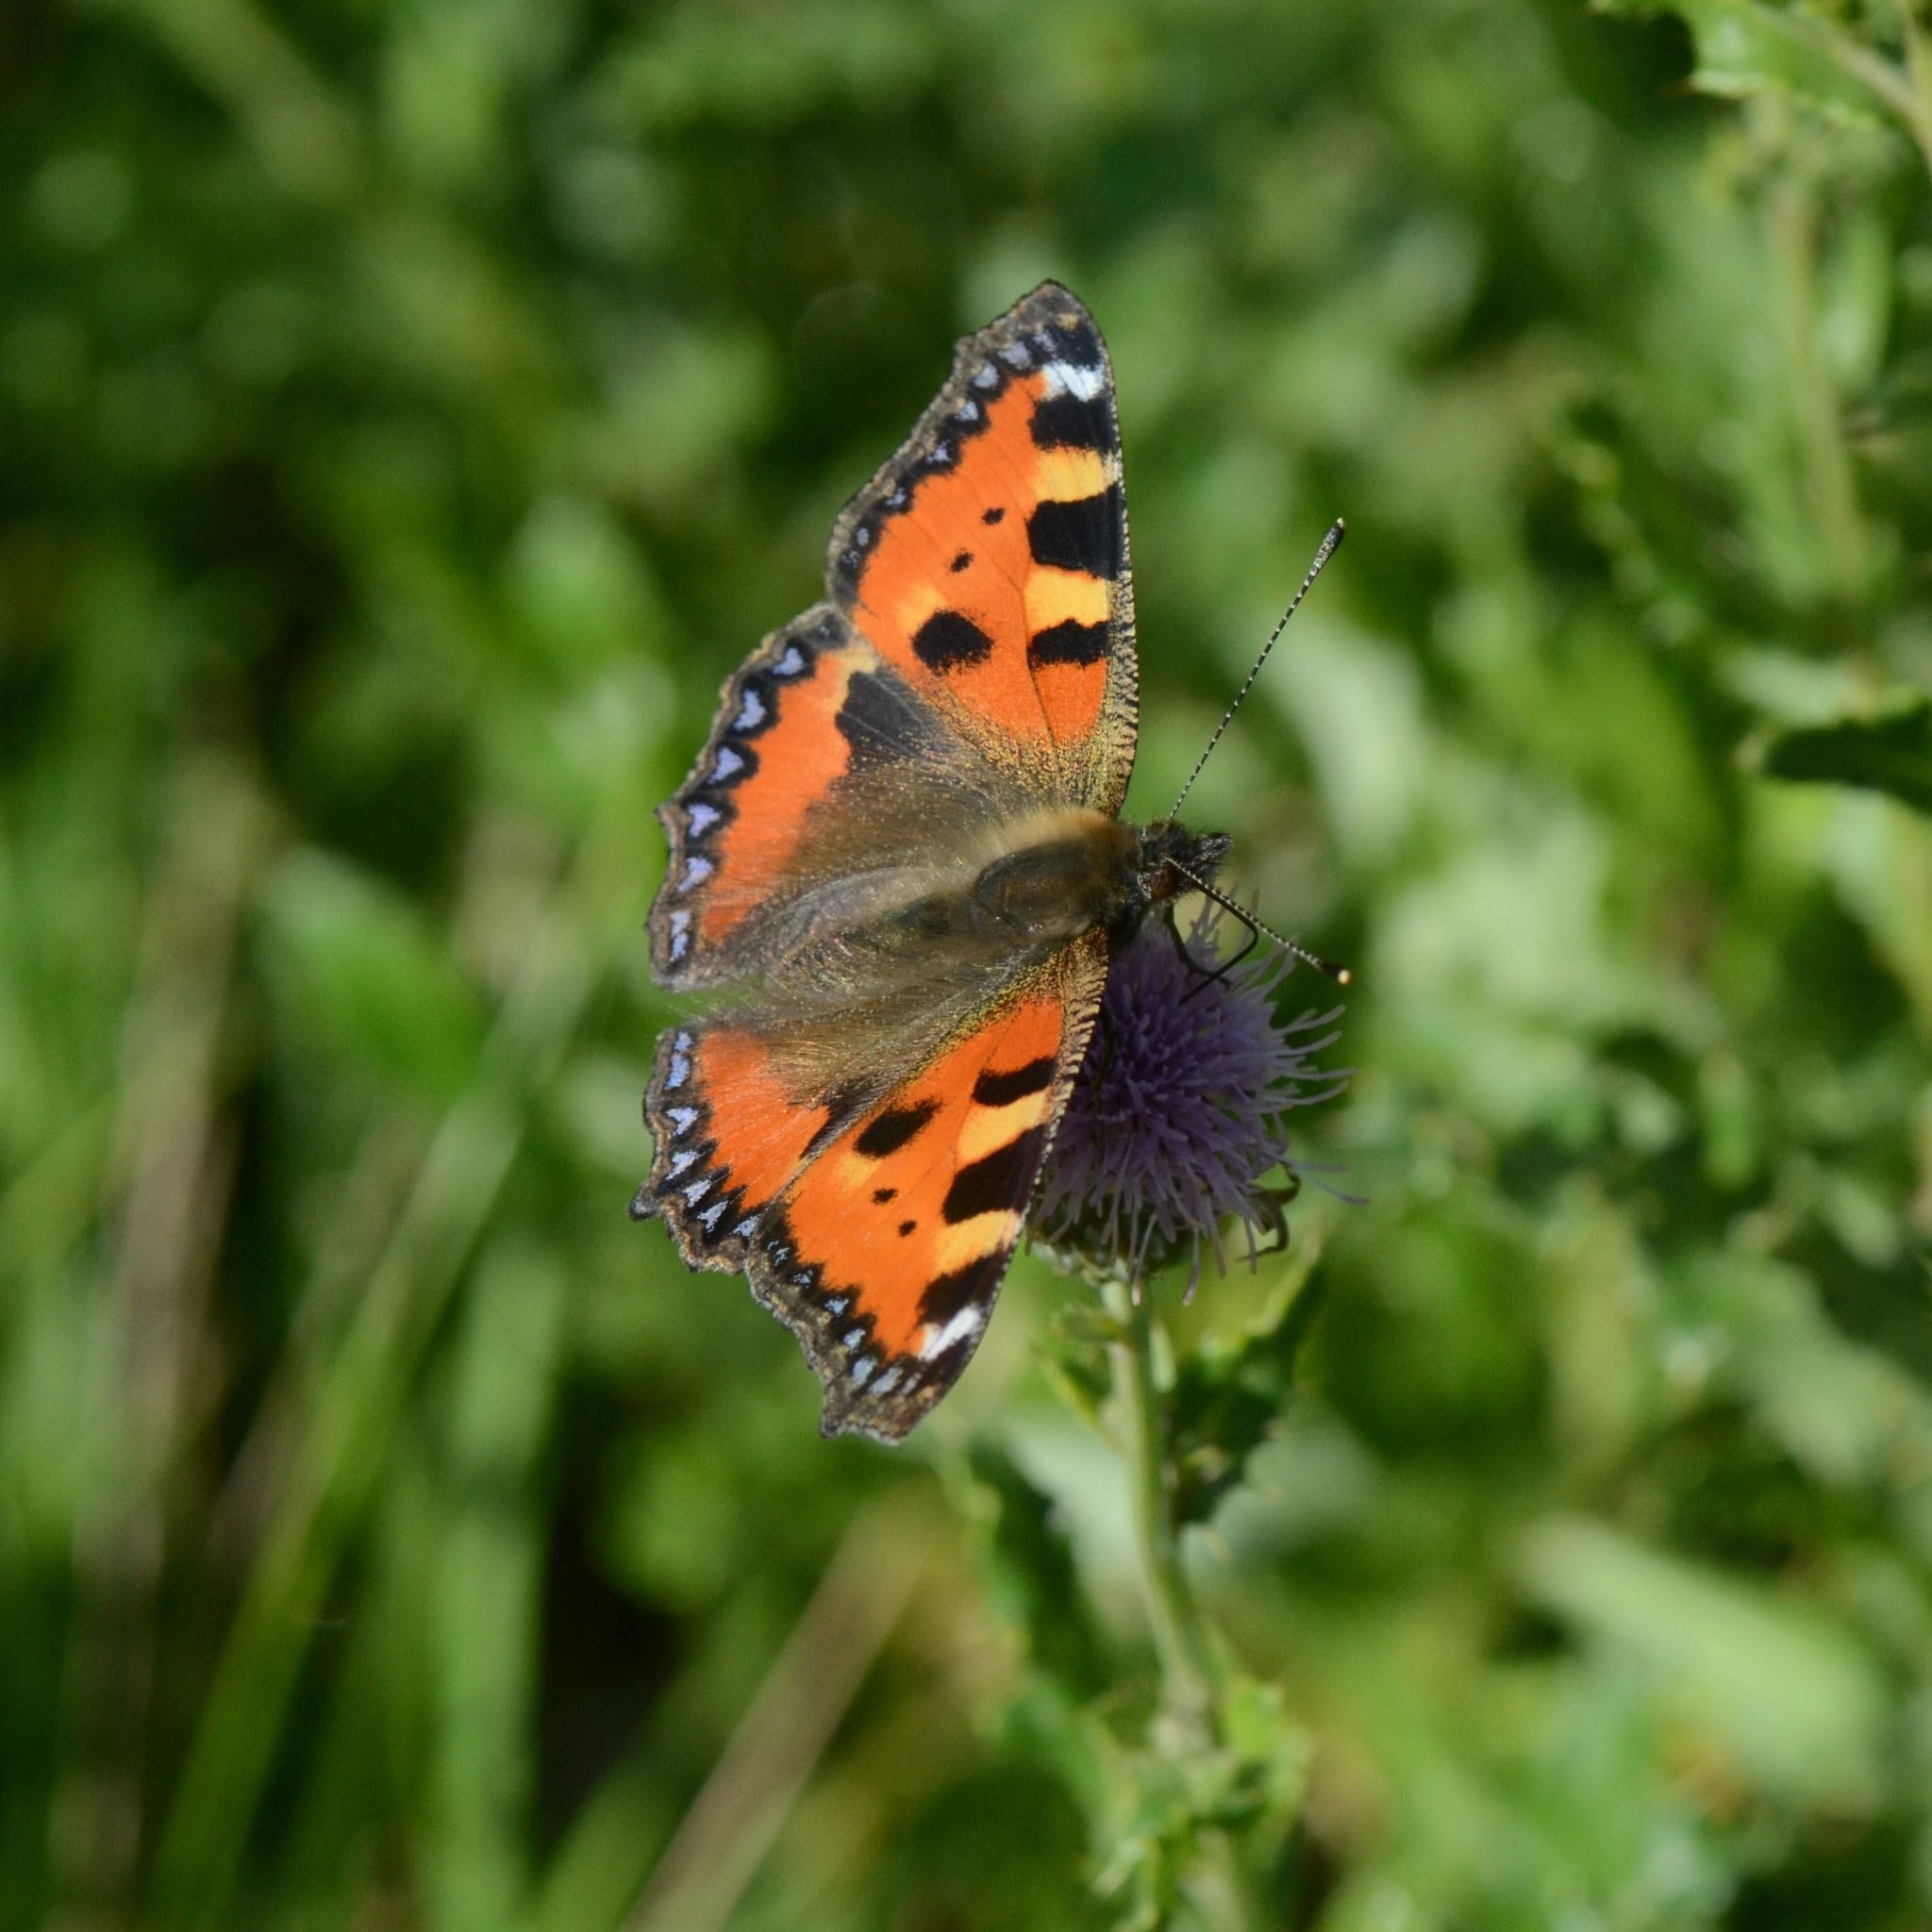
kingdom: Animalia
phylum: Arthropoda
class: Insecta
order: Lepidoptera
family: Nymphalidae
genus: Aglais
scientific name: Aglais urticae
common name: Small tortoiseshell
